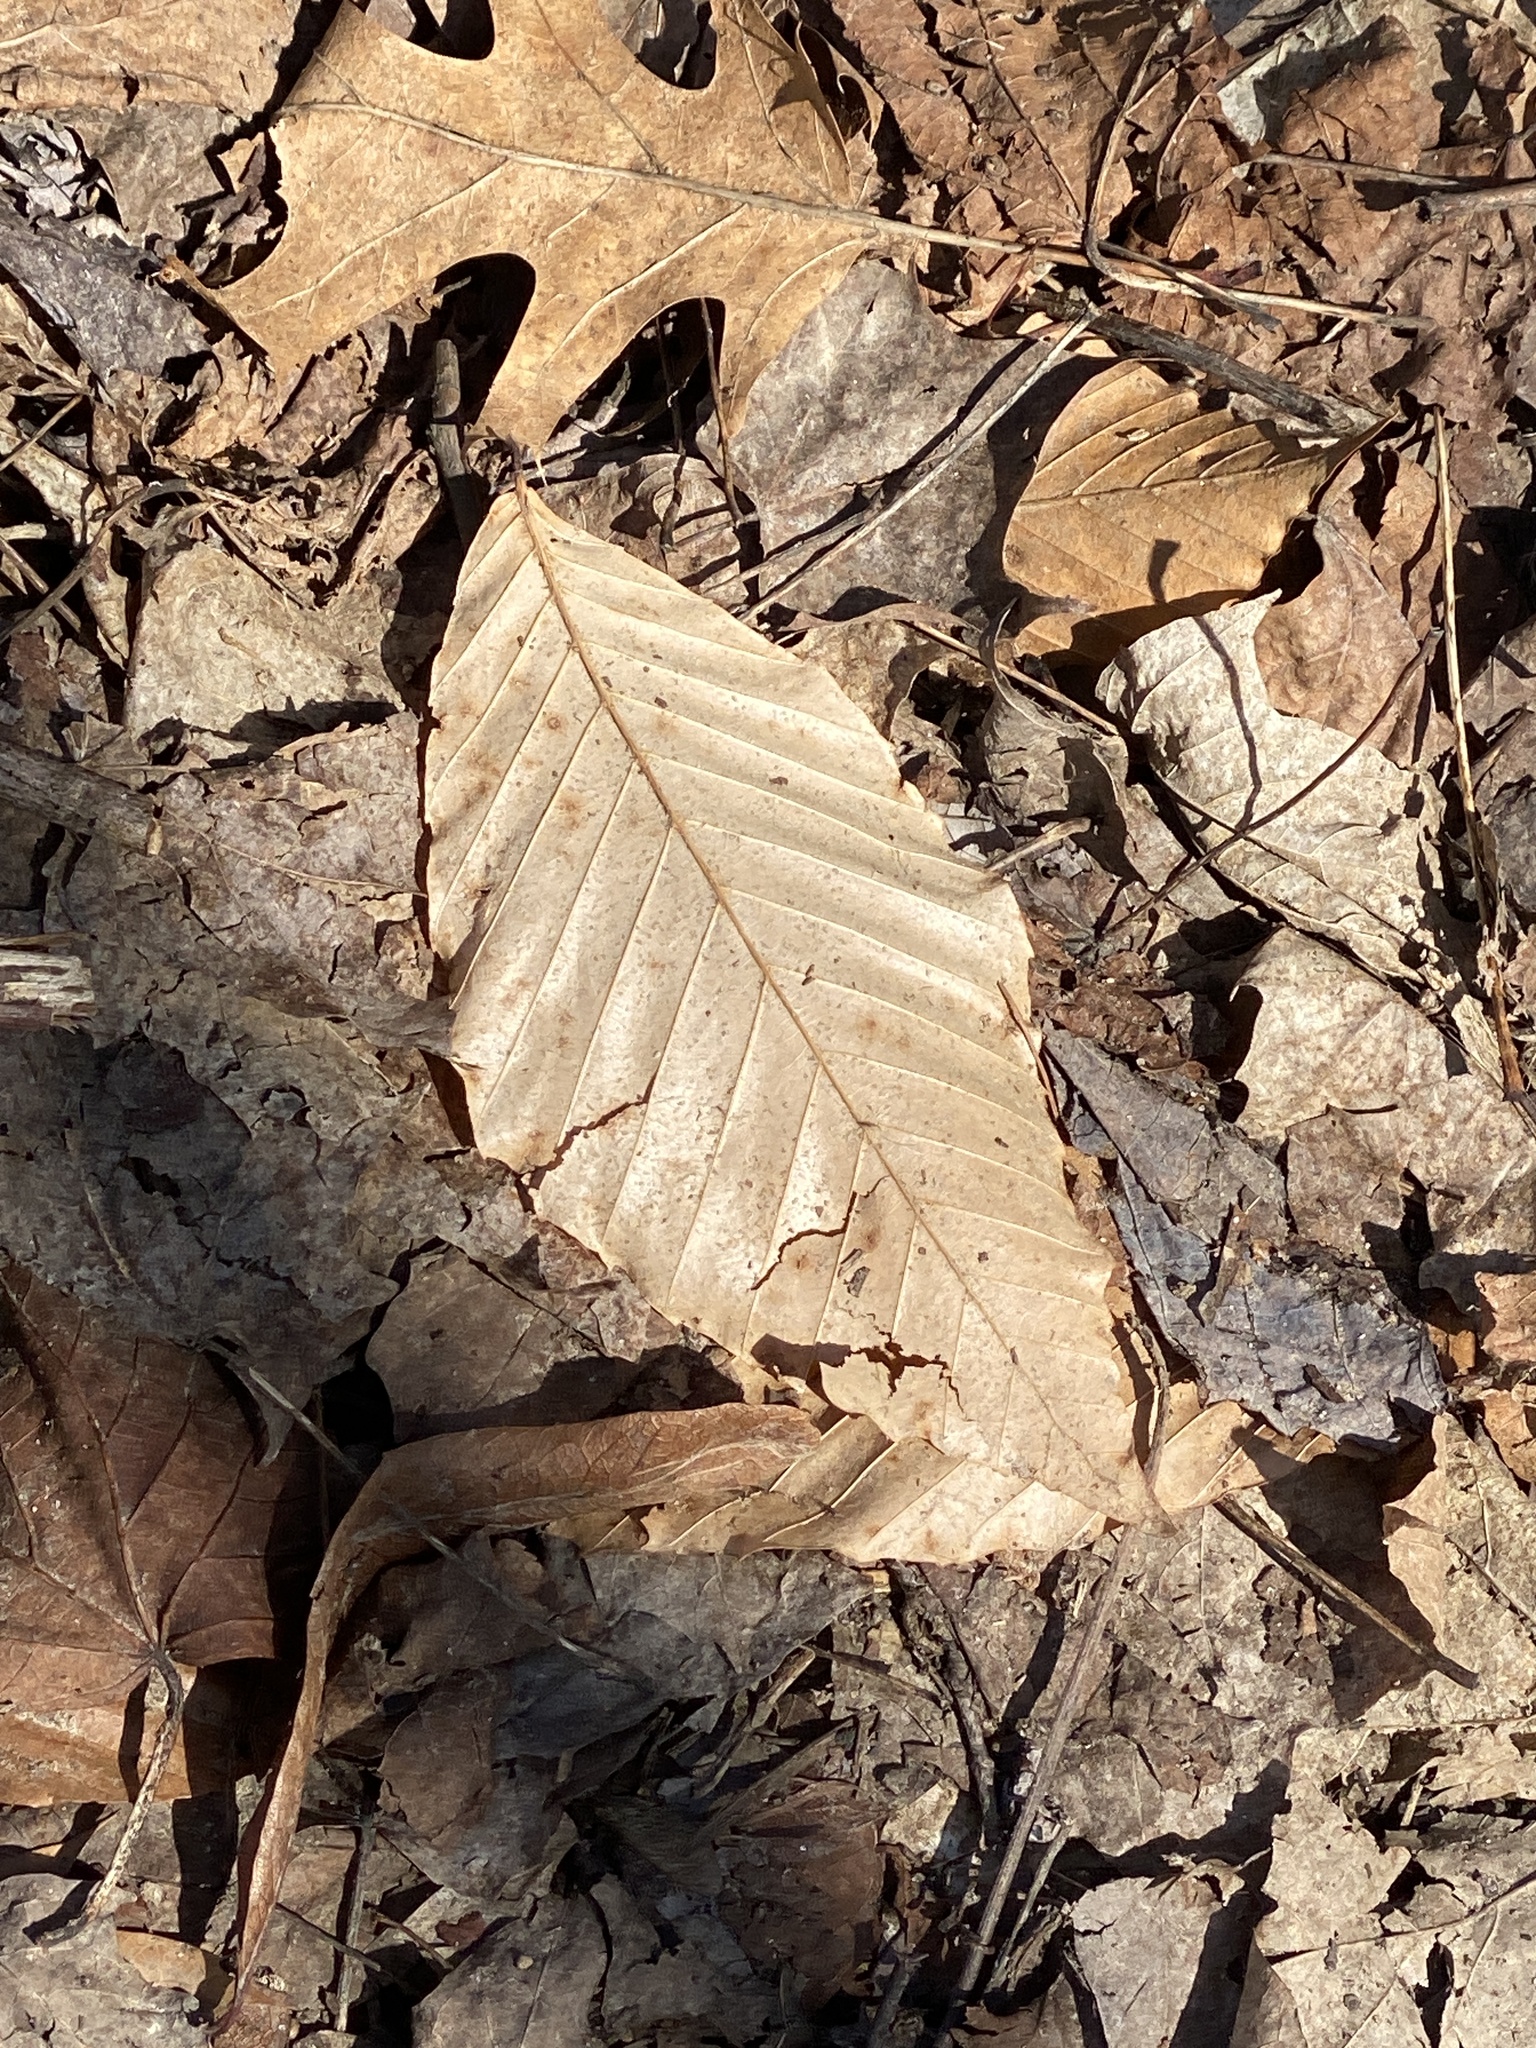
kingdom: Plantae
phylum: Tracheophyta
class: Magnoliopsida
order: Fagales
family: Fagaceae
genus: Fagus
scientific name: Fagus grandifolia
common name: American beech
